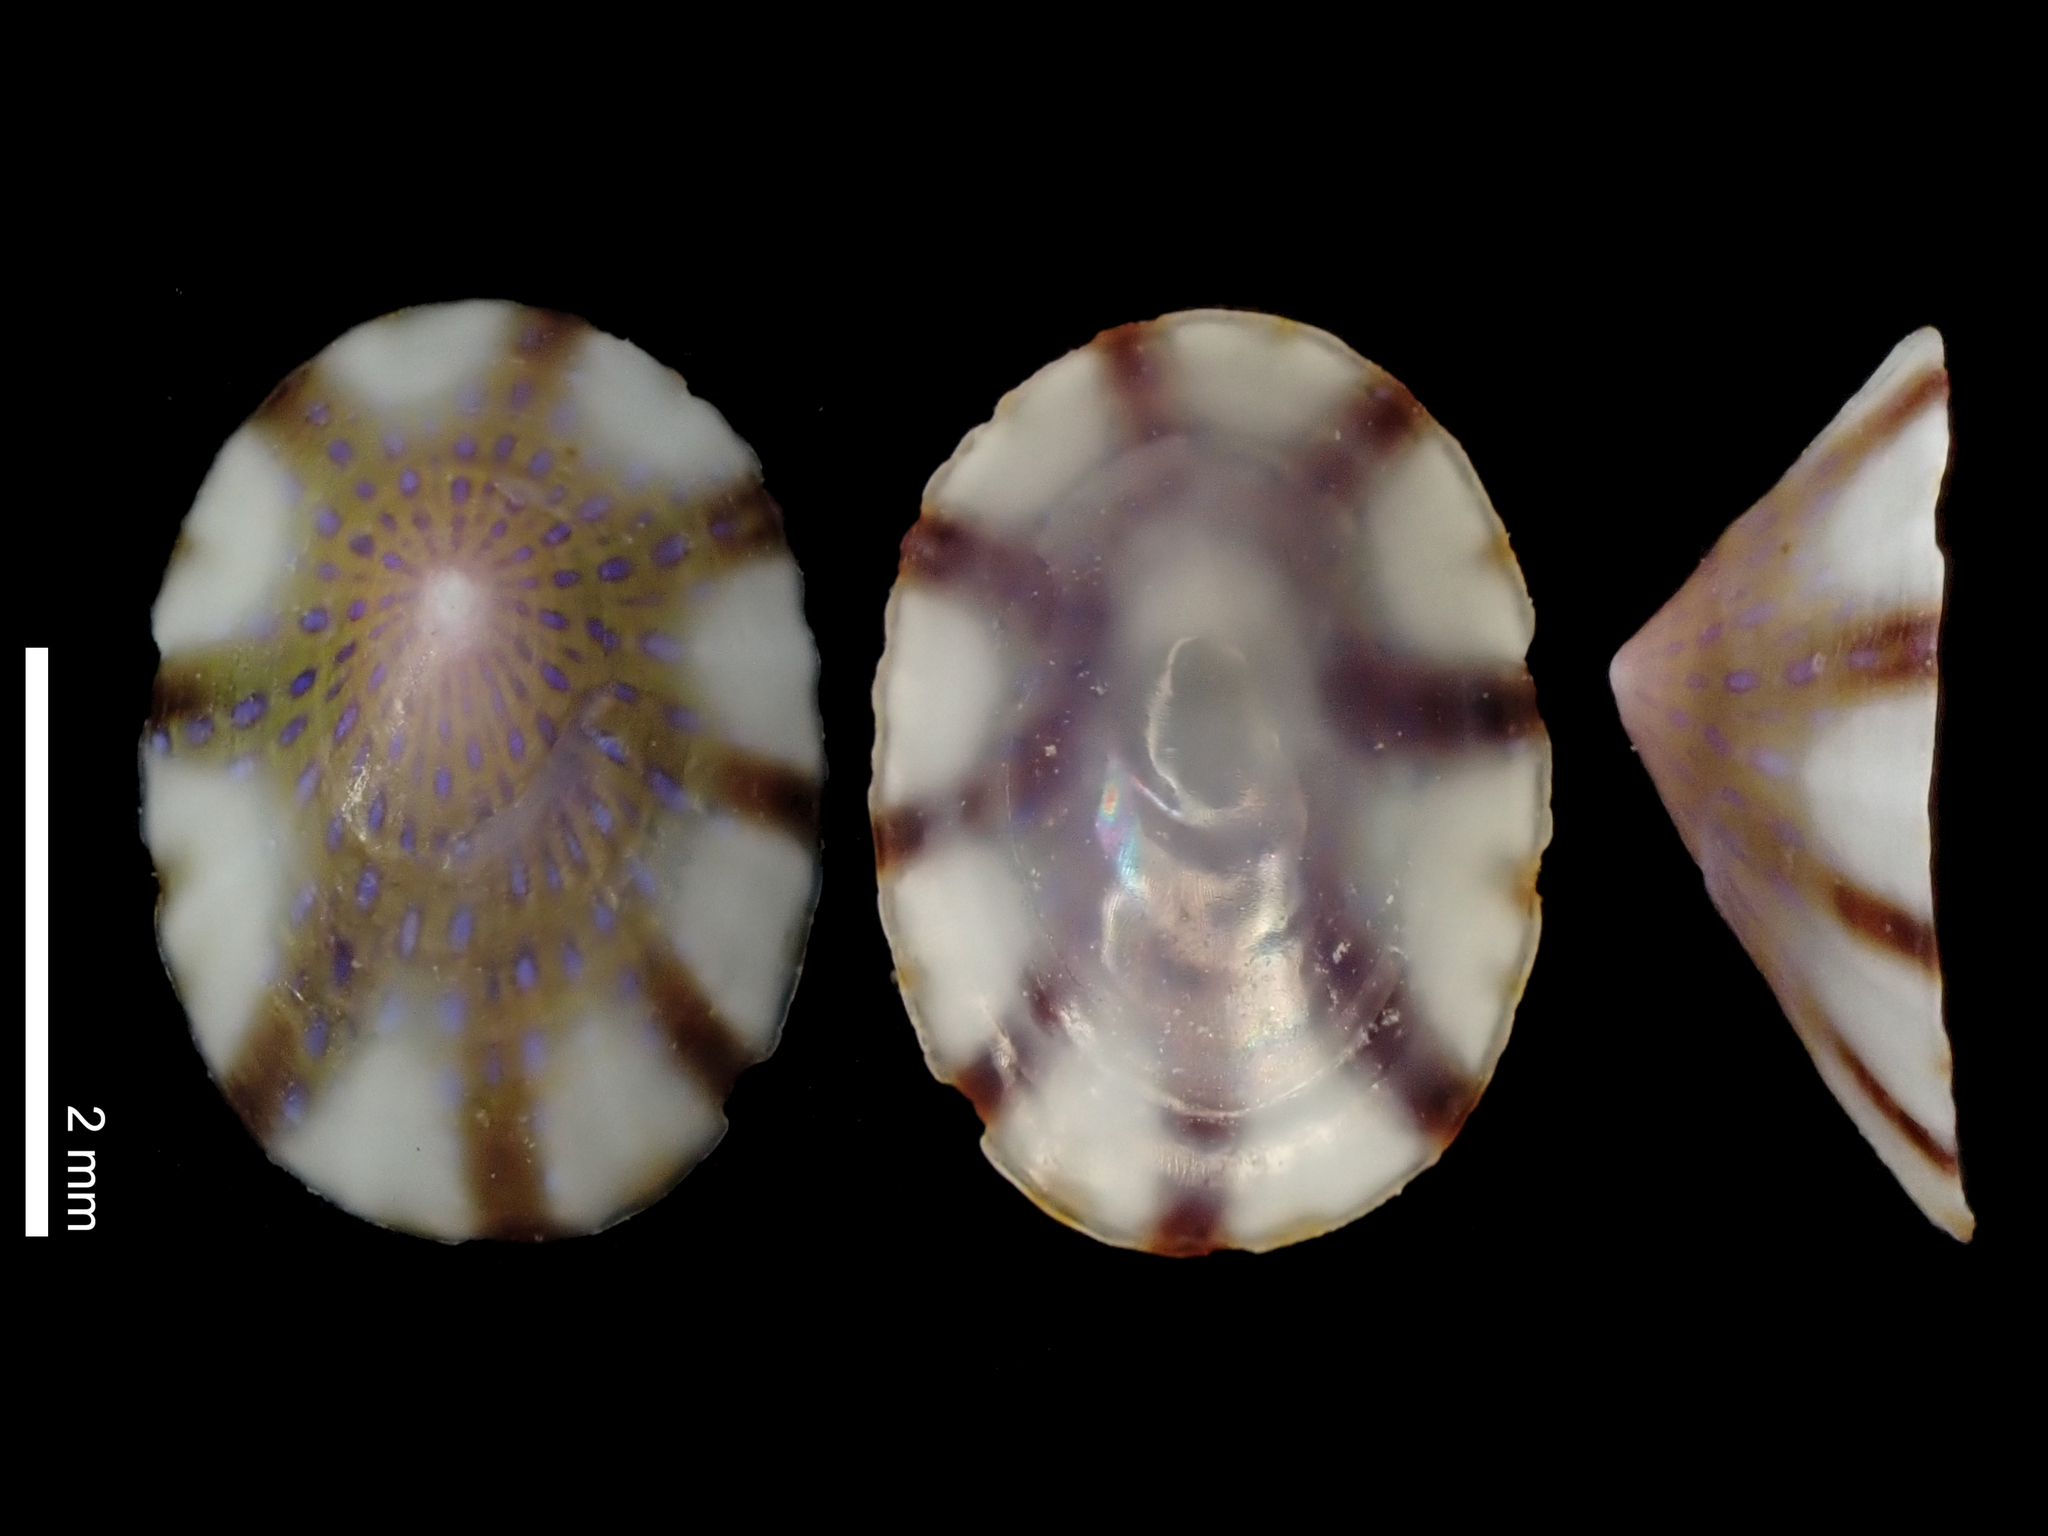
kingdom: Animalia
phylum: Mollusca
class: Gastropoda
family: Lottiidae
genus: Asteracmea
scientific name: Asteracmea suteri
